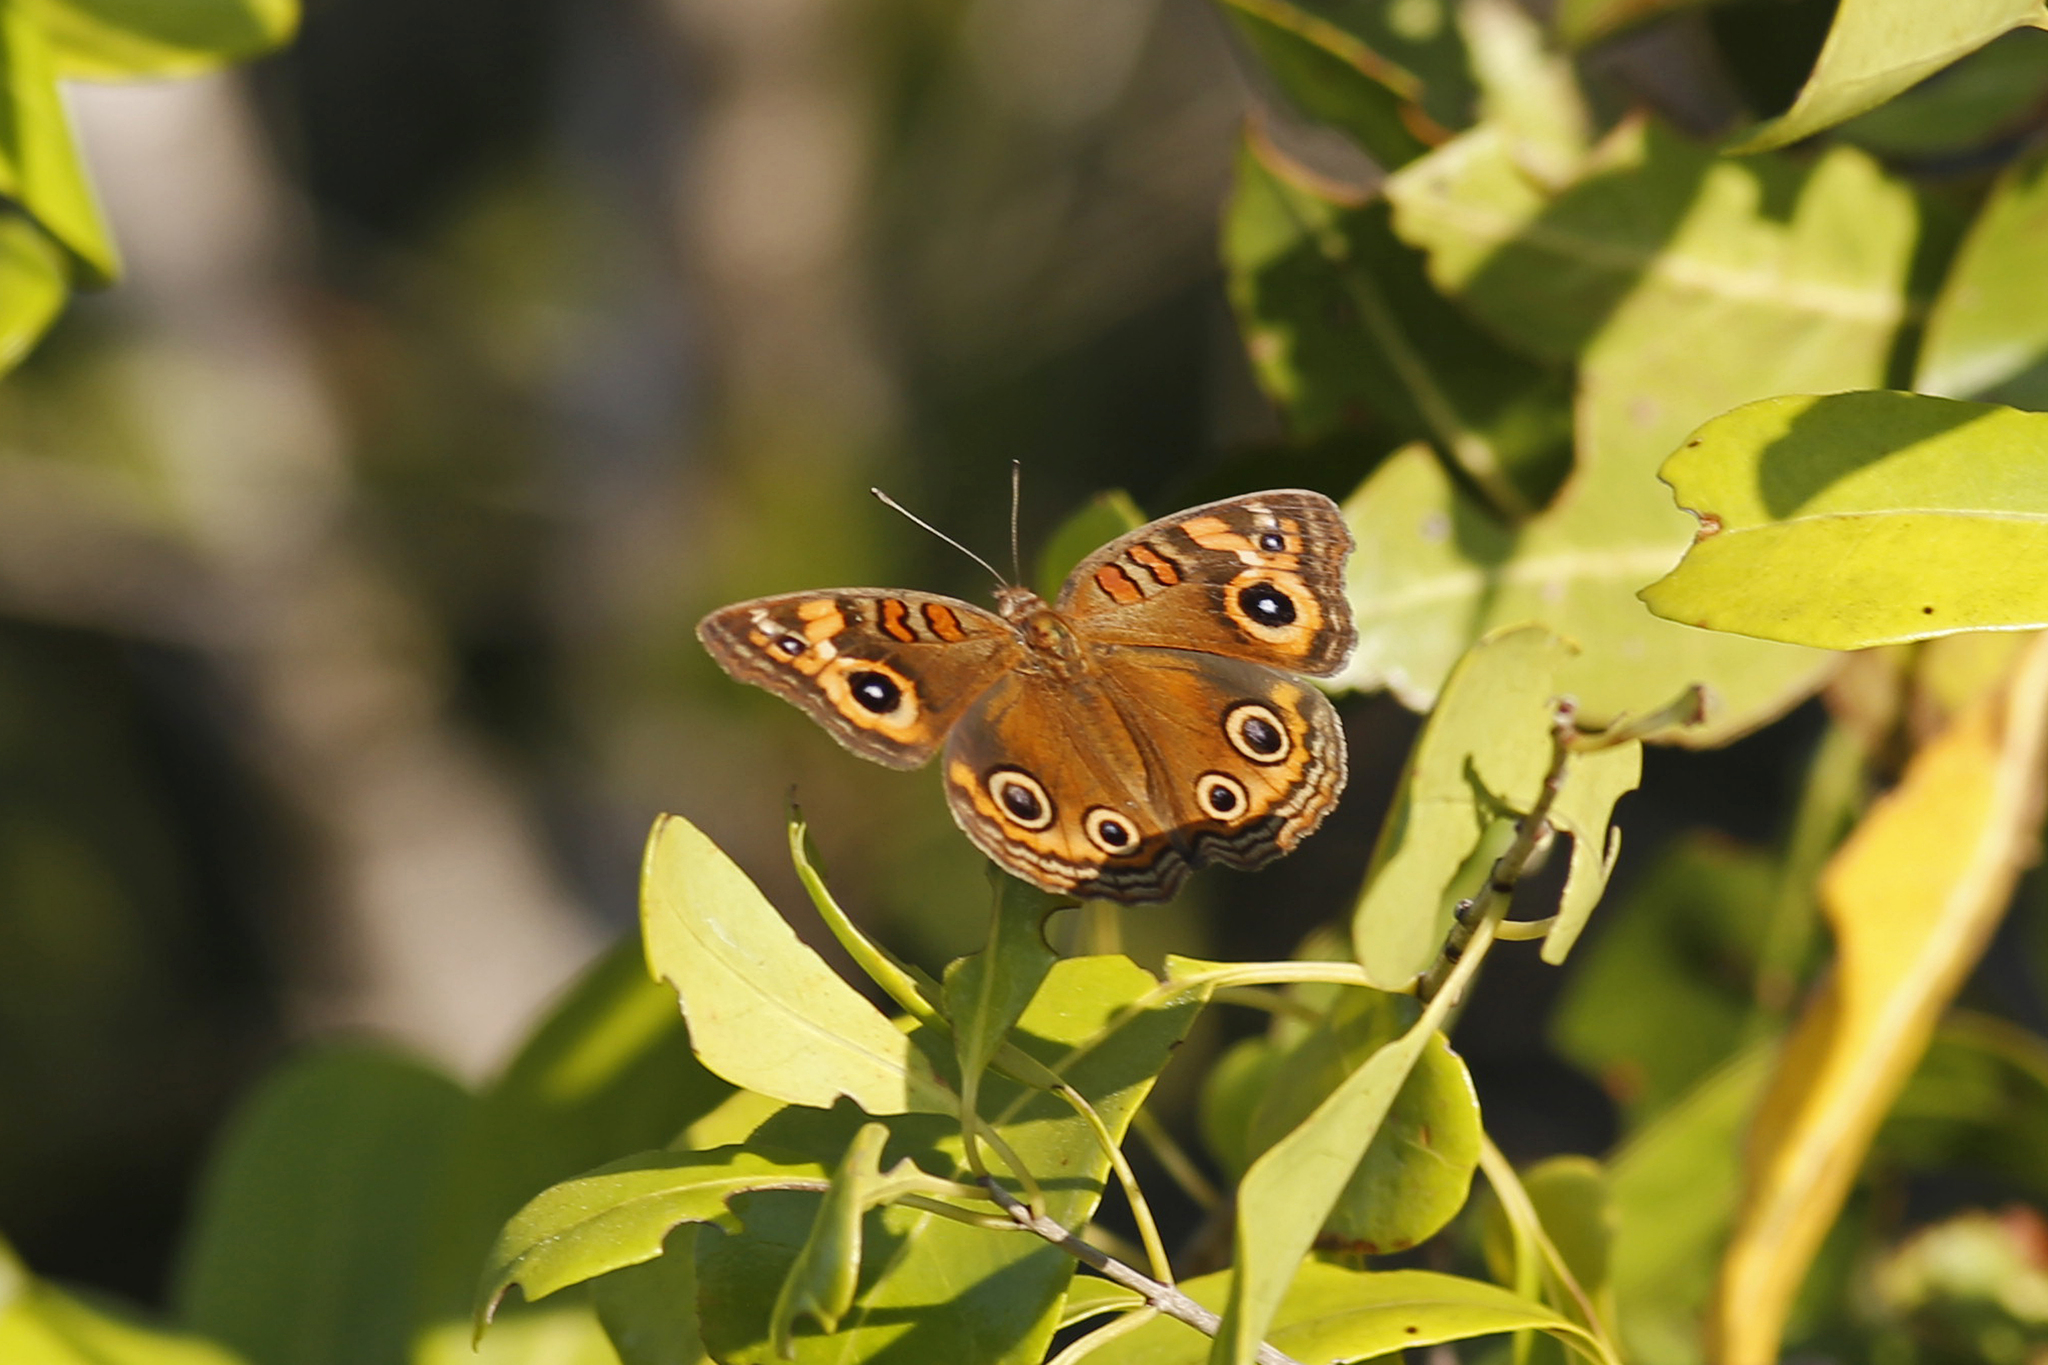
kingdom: Animalia
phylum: Arthropoda
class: Insecta
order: Lepidoptera
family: Nymphalidae
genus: Junonia
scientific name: Junonia neildi
